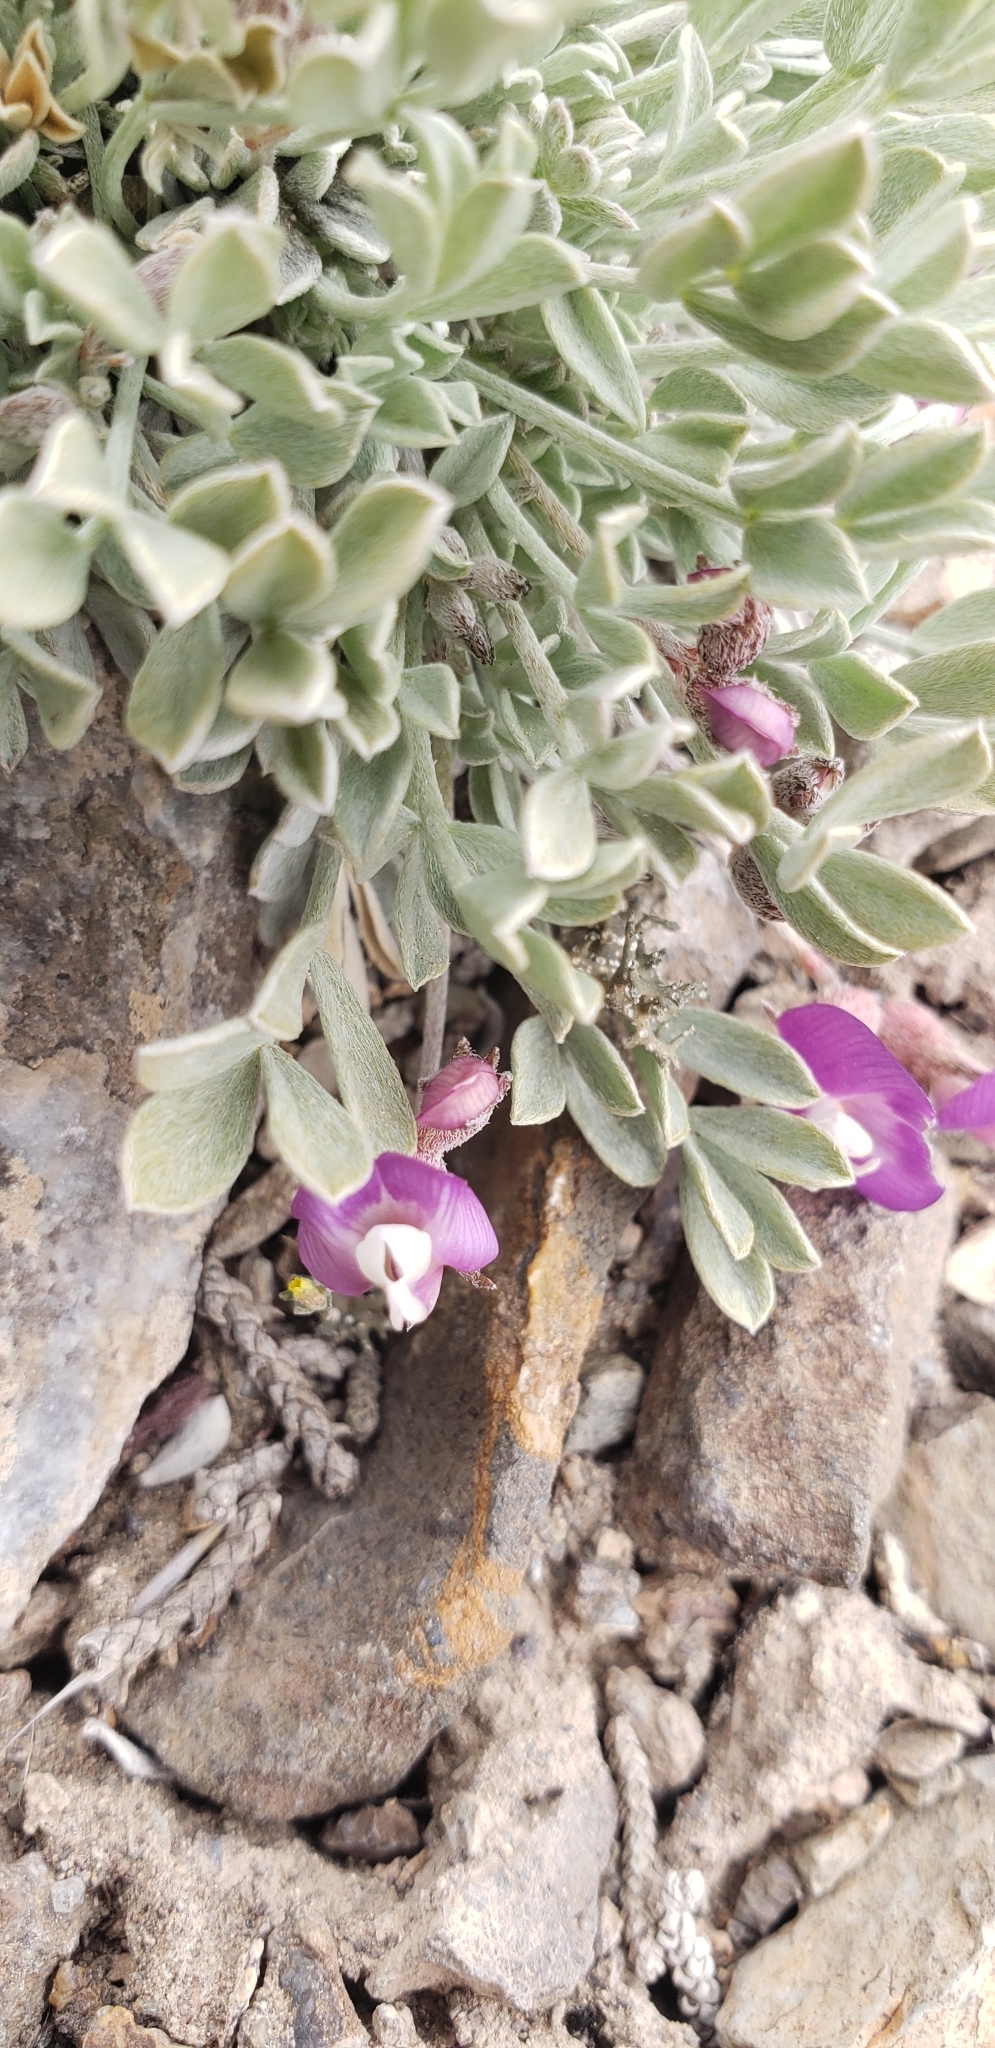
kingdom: Plantae
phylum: Tracheophyta
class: Magnoliopsida
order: Fabales
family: Fabaceae
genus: Astragalus
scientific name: Astragalus calycosus
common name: King's milkvetch
